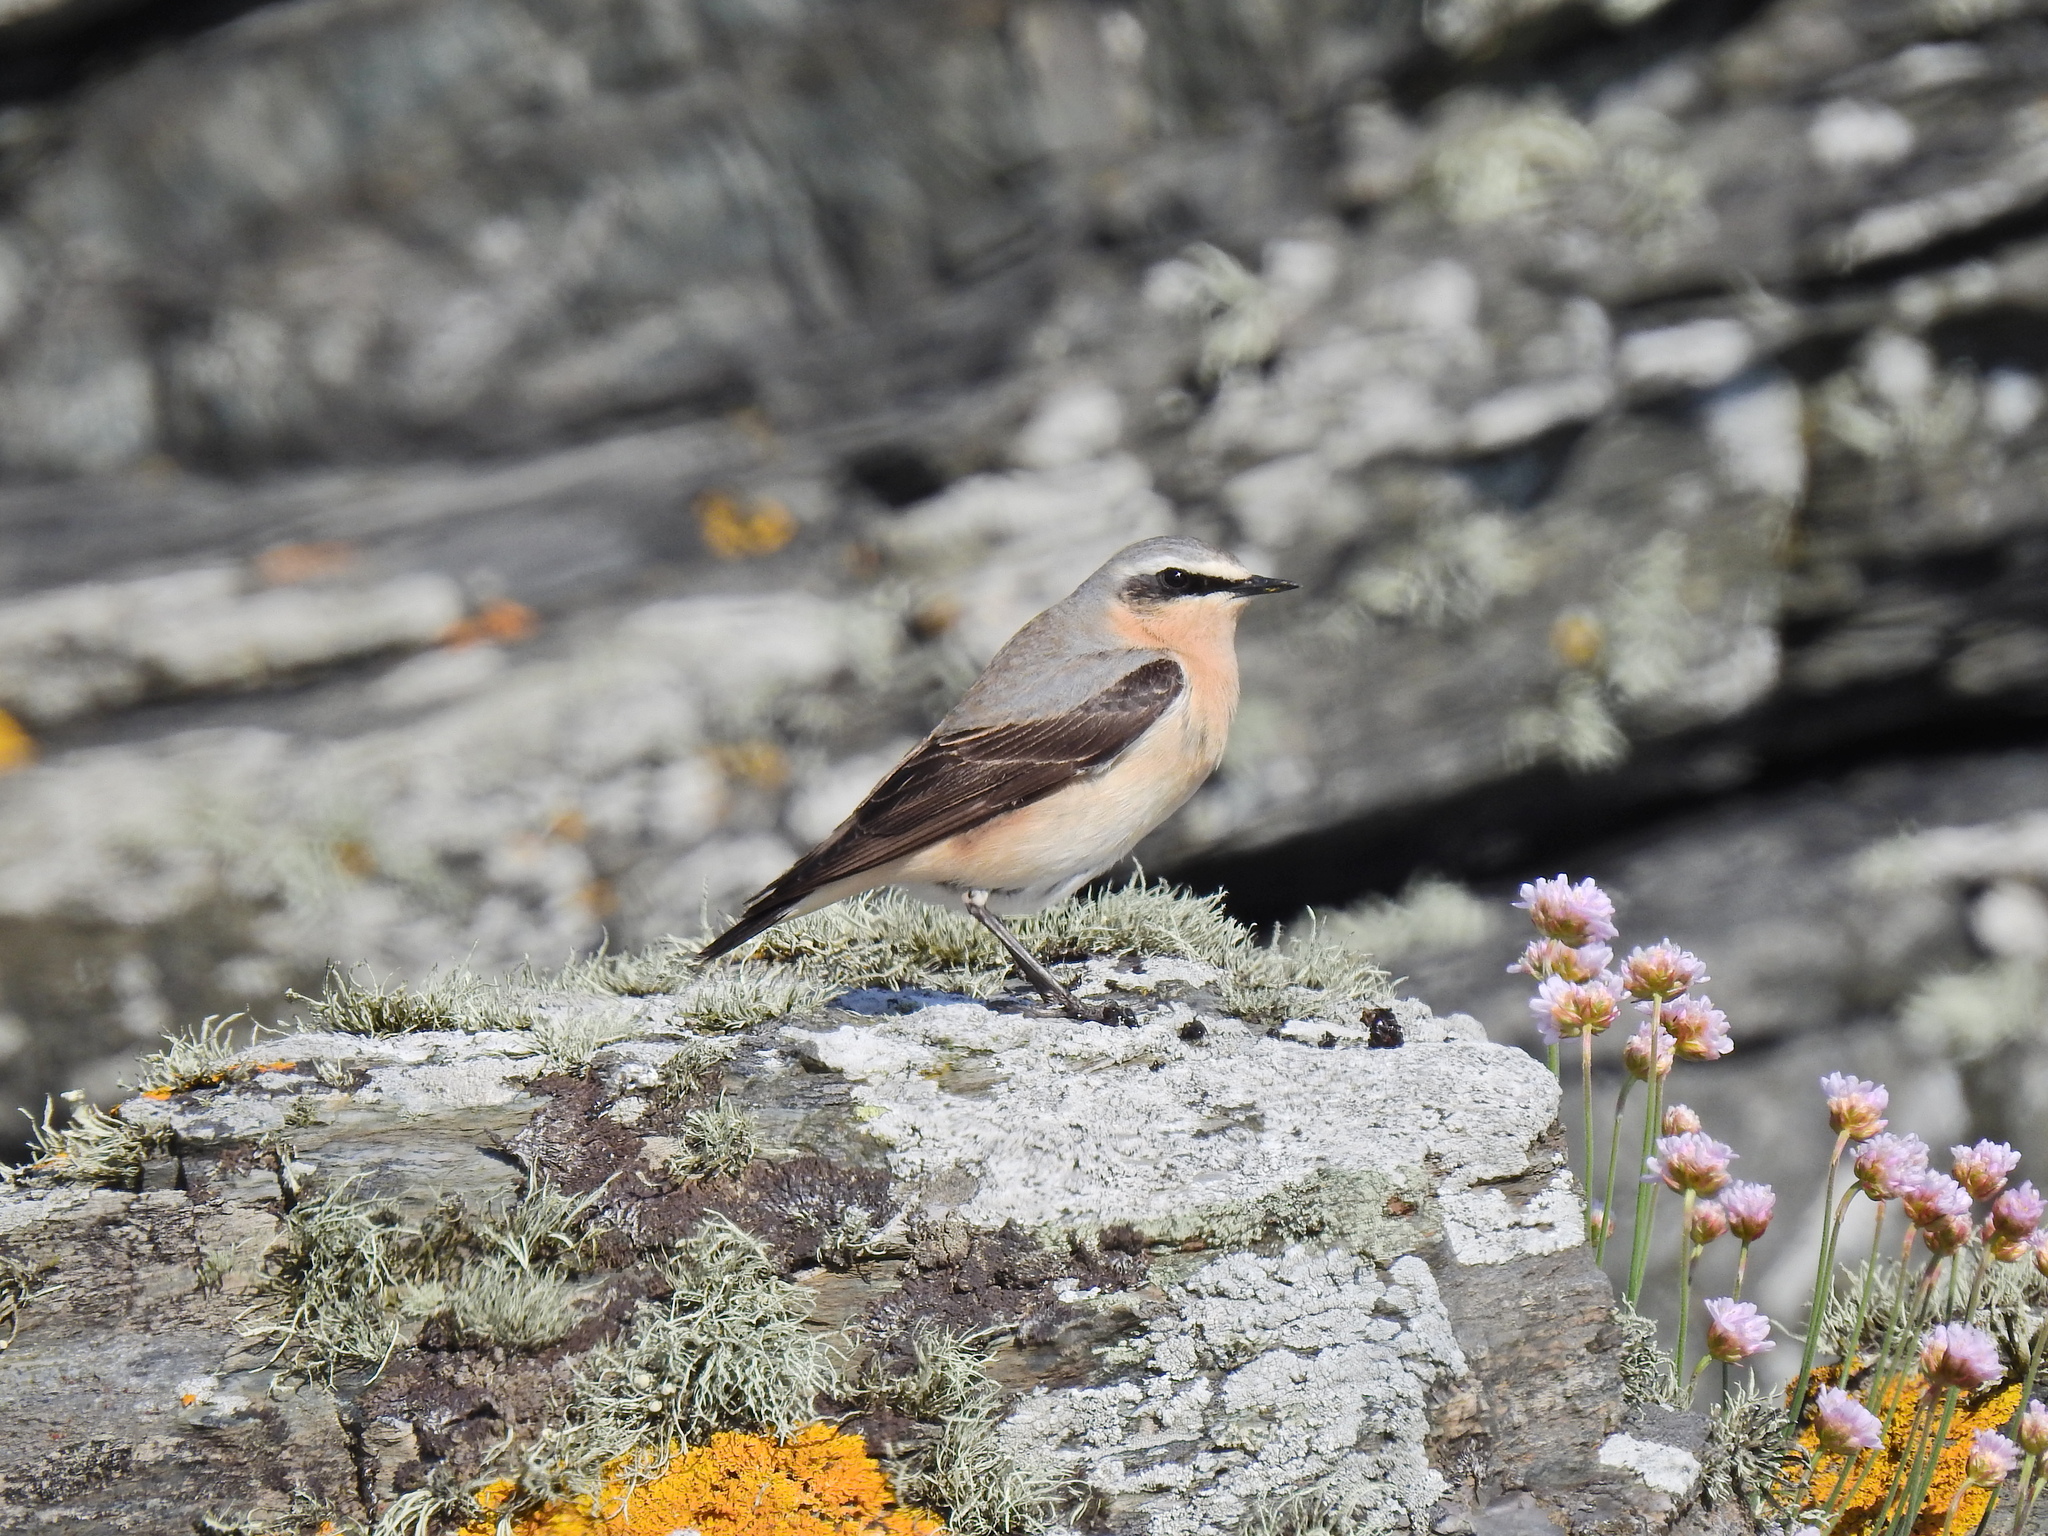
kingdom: Animalia
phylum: Chordata
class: Aves
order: Passeriformes
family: Muscicapidae
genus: Oenanthe
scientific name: Oenanthe oenanthe
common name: Northern wheatear
